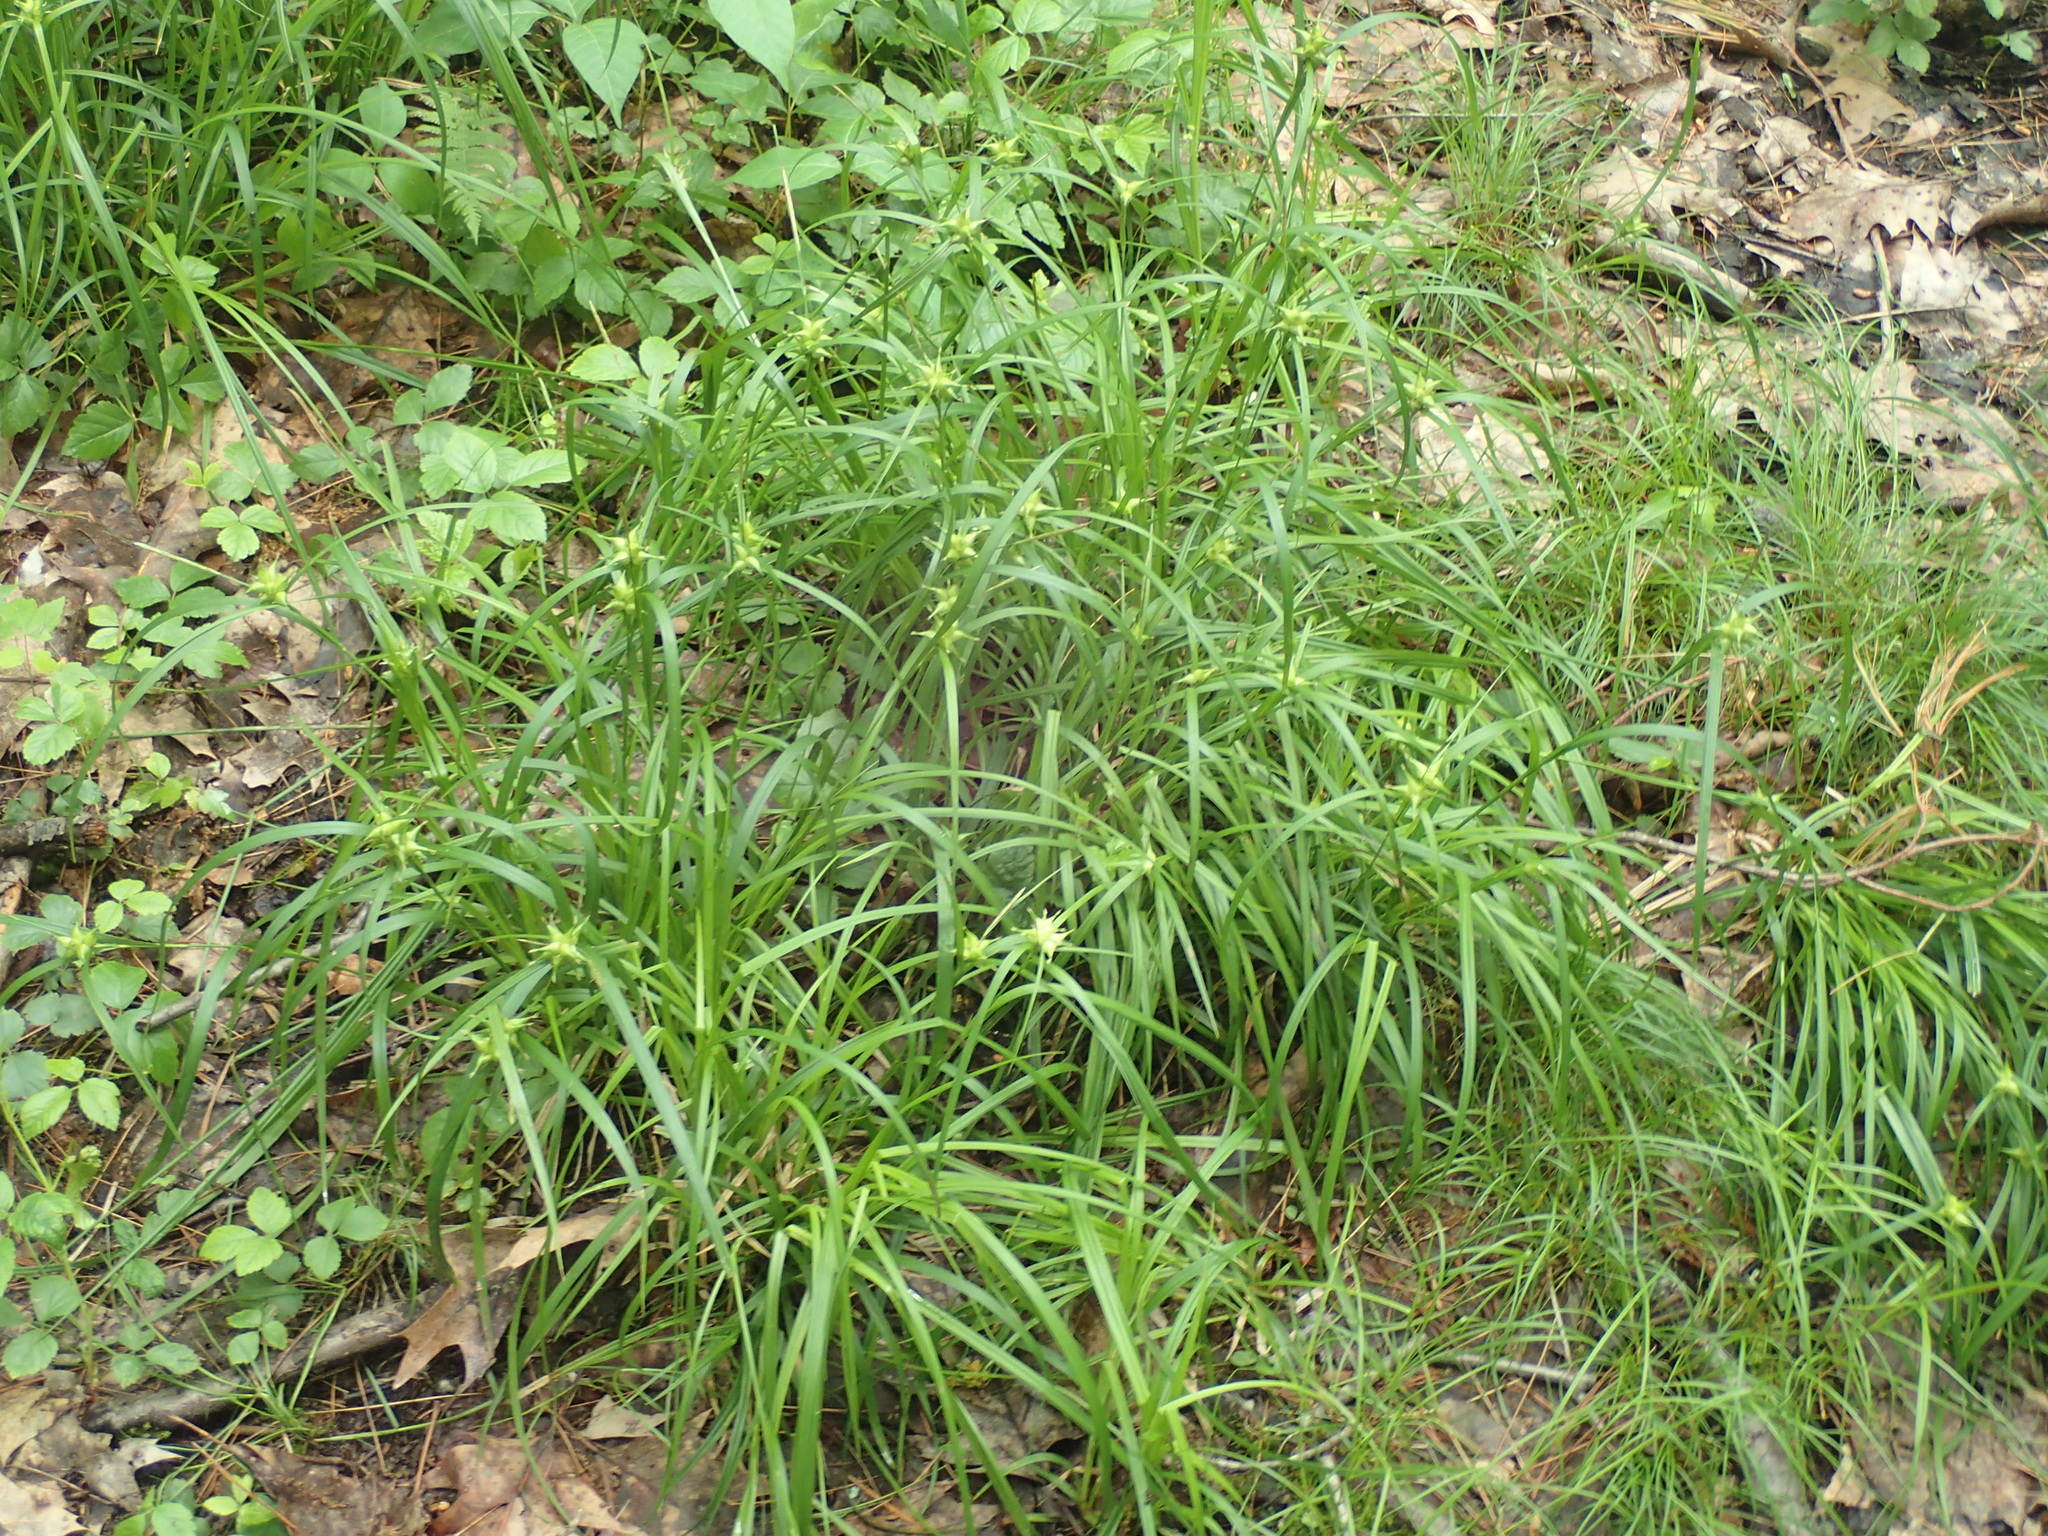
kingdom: Plantae
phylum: Tracheophyta
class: Liliopsida
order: Poales
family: Cyperaceae
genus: Carex
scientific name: Carex intumescens
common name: Greater bladder sedge
